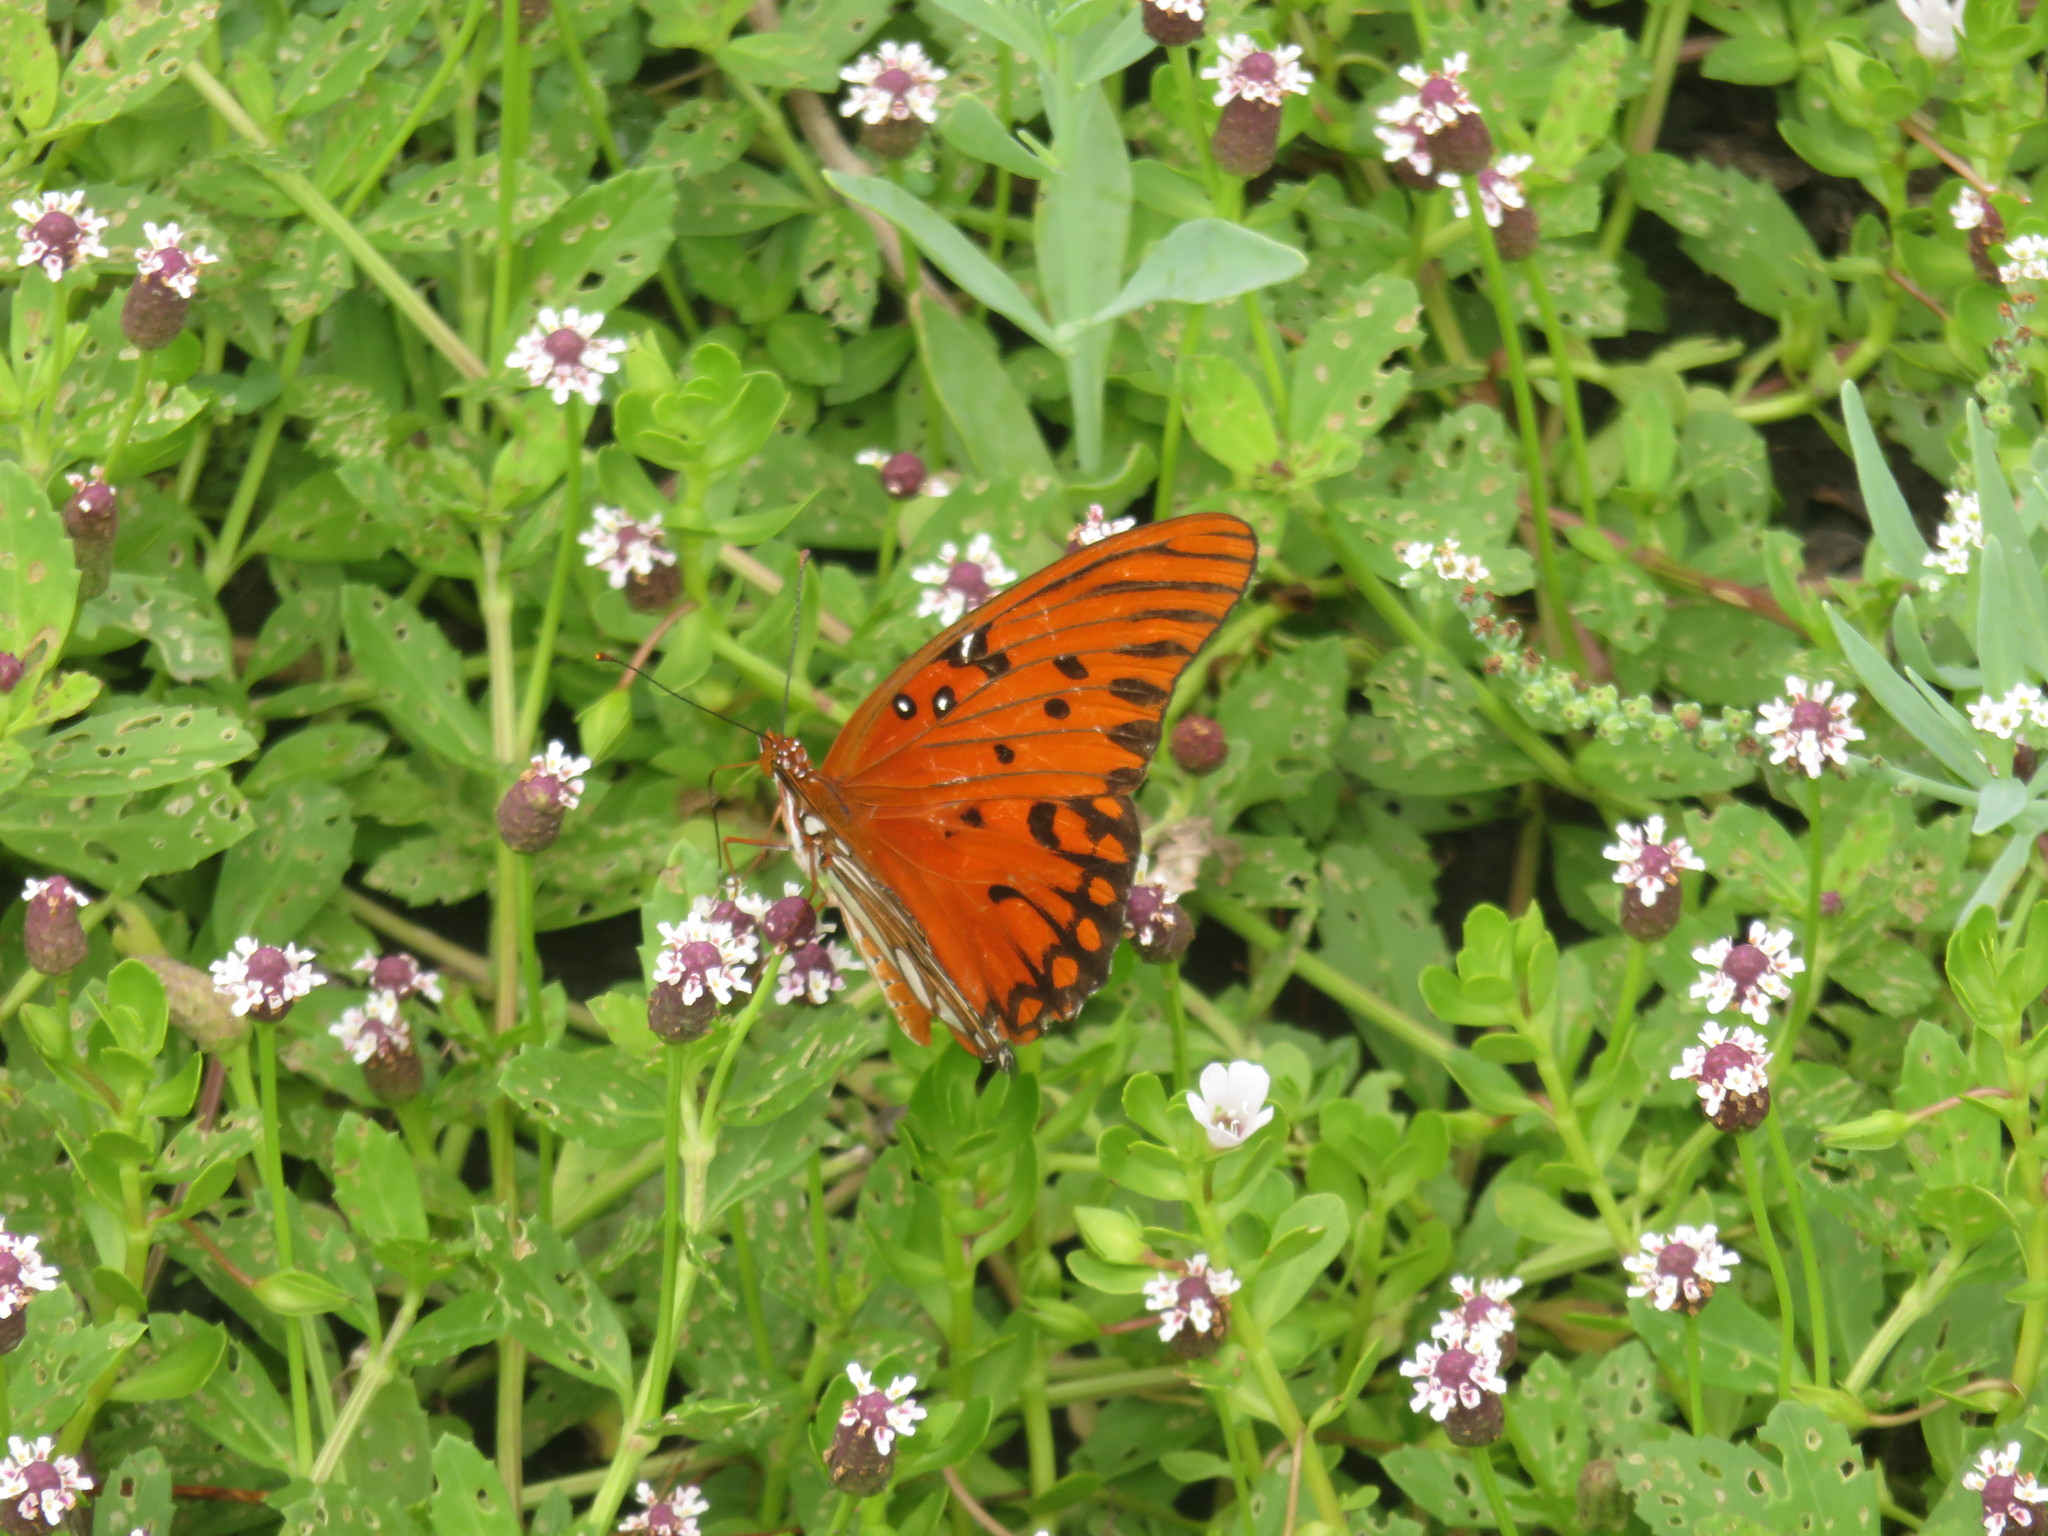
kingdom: Animalia
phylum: Arthropoda
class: Insecta
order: Lepidoptera
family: Nymphalidae
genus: Dione
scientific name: Dione vanillae
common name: Gulf fritillary
